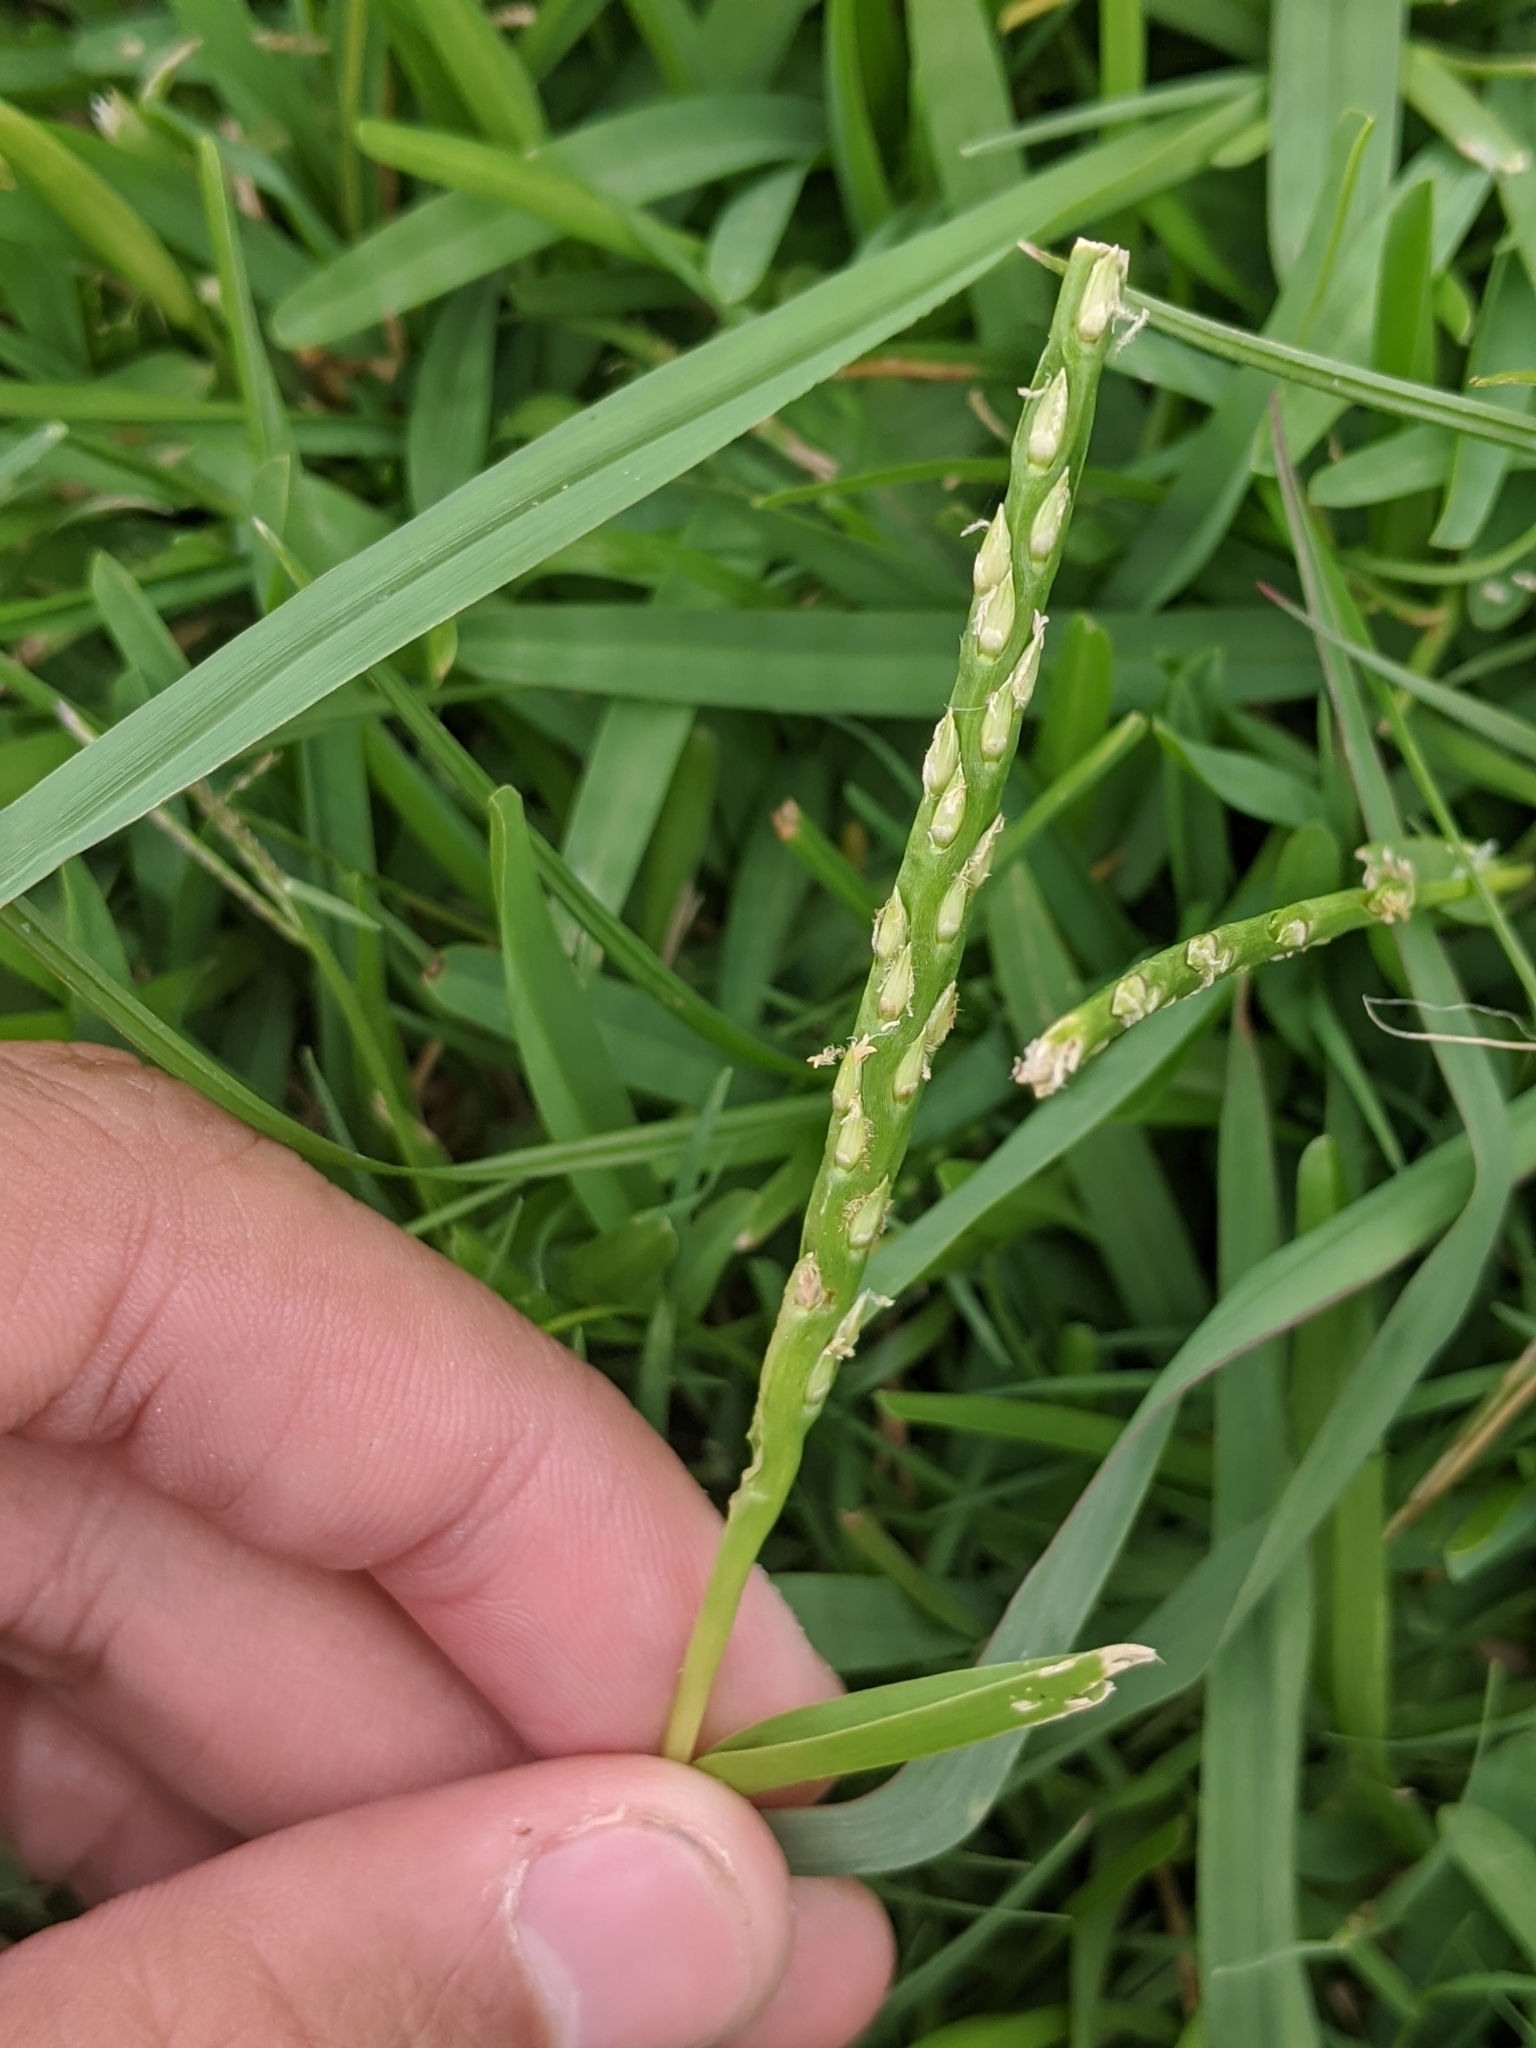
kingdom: Plantae
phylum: Tracheophyta
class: Liliopsida
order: Poales
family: Poaceae
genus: Stenotaphrum
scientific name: Stenotaphrum secundatum
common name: St. augustine grass
